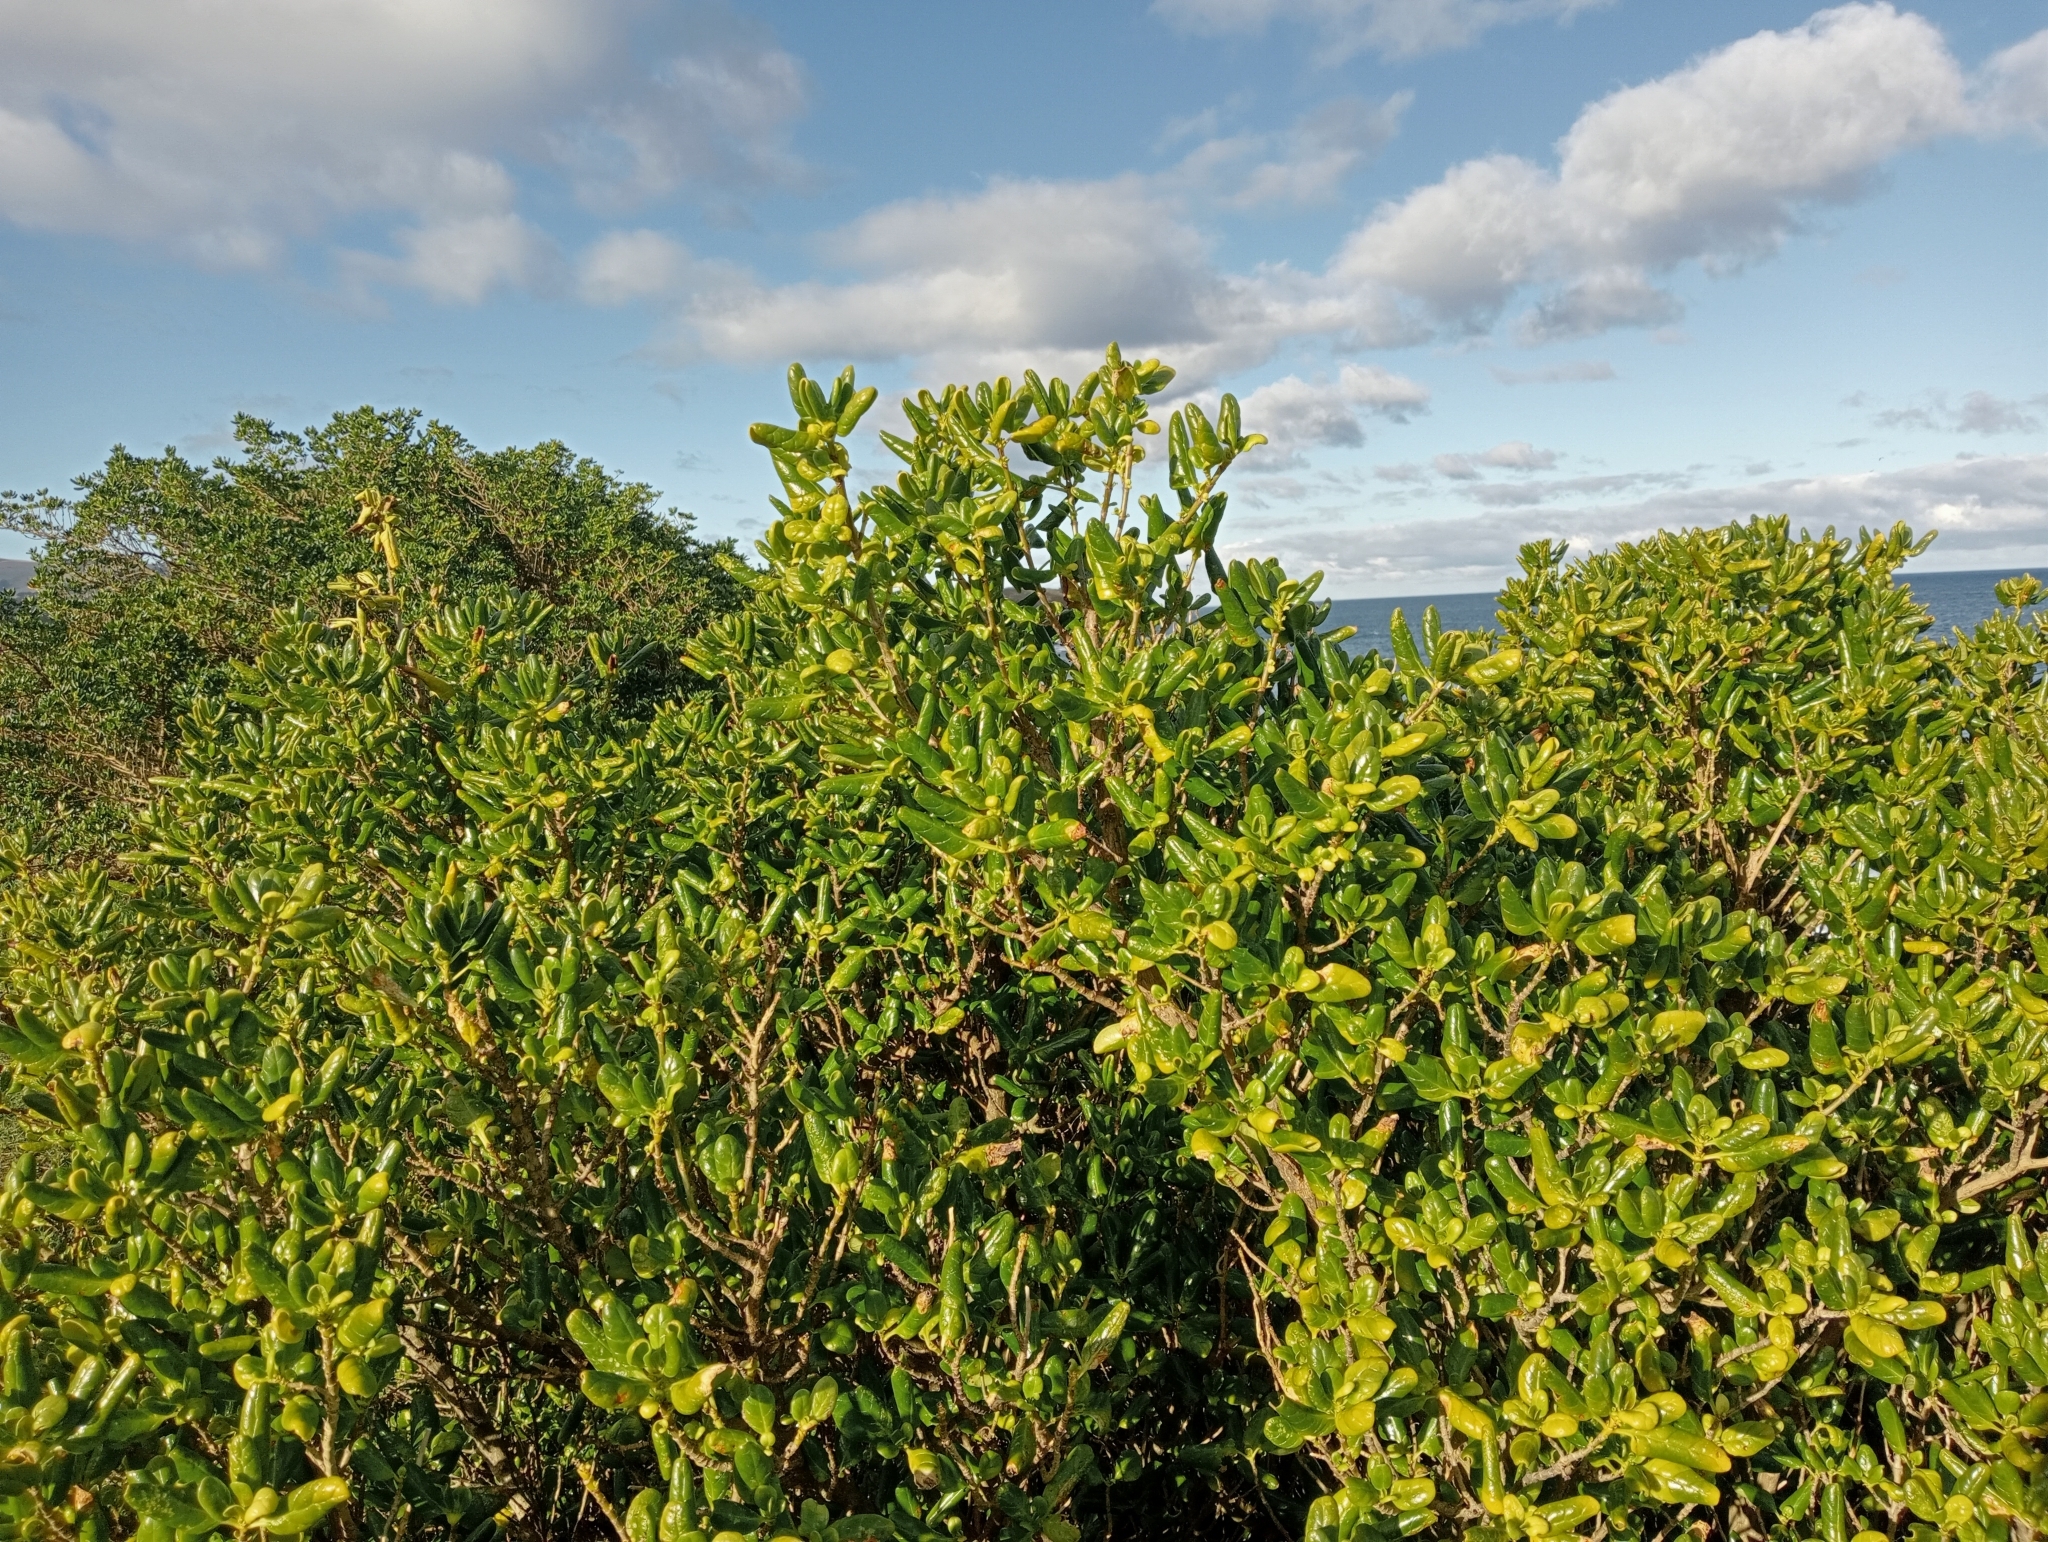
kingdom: Plantae
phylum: Tracheophyta
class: Magnoliopsida
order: Gentianales
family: Rubiaceae
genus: Coprosma
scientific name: Coprosma repens
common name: Tree bedstraw
